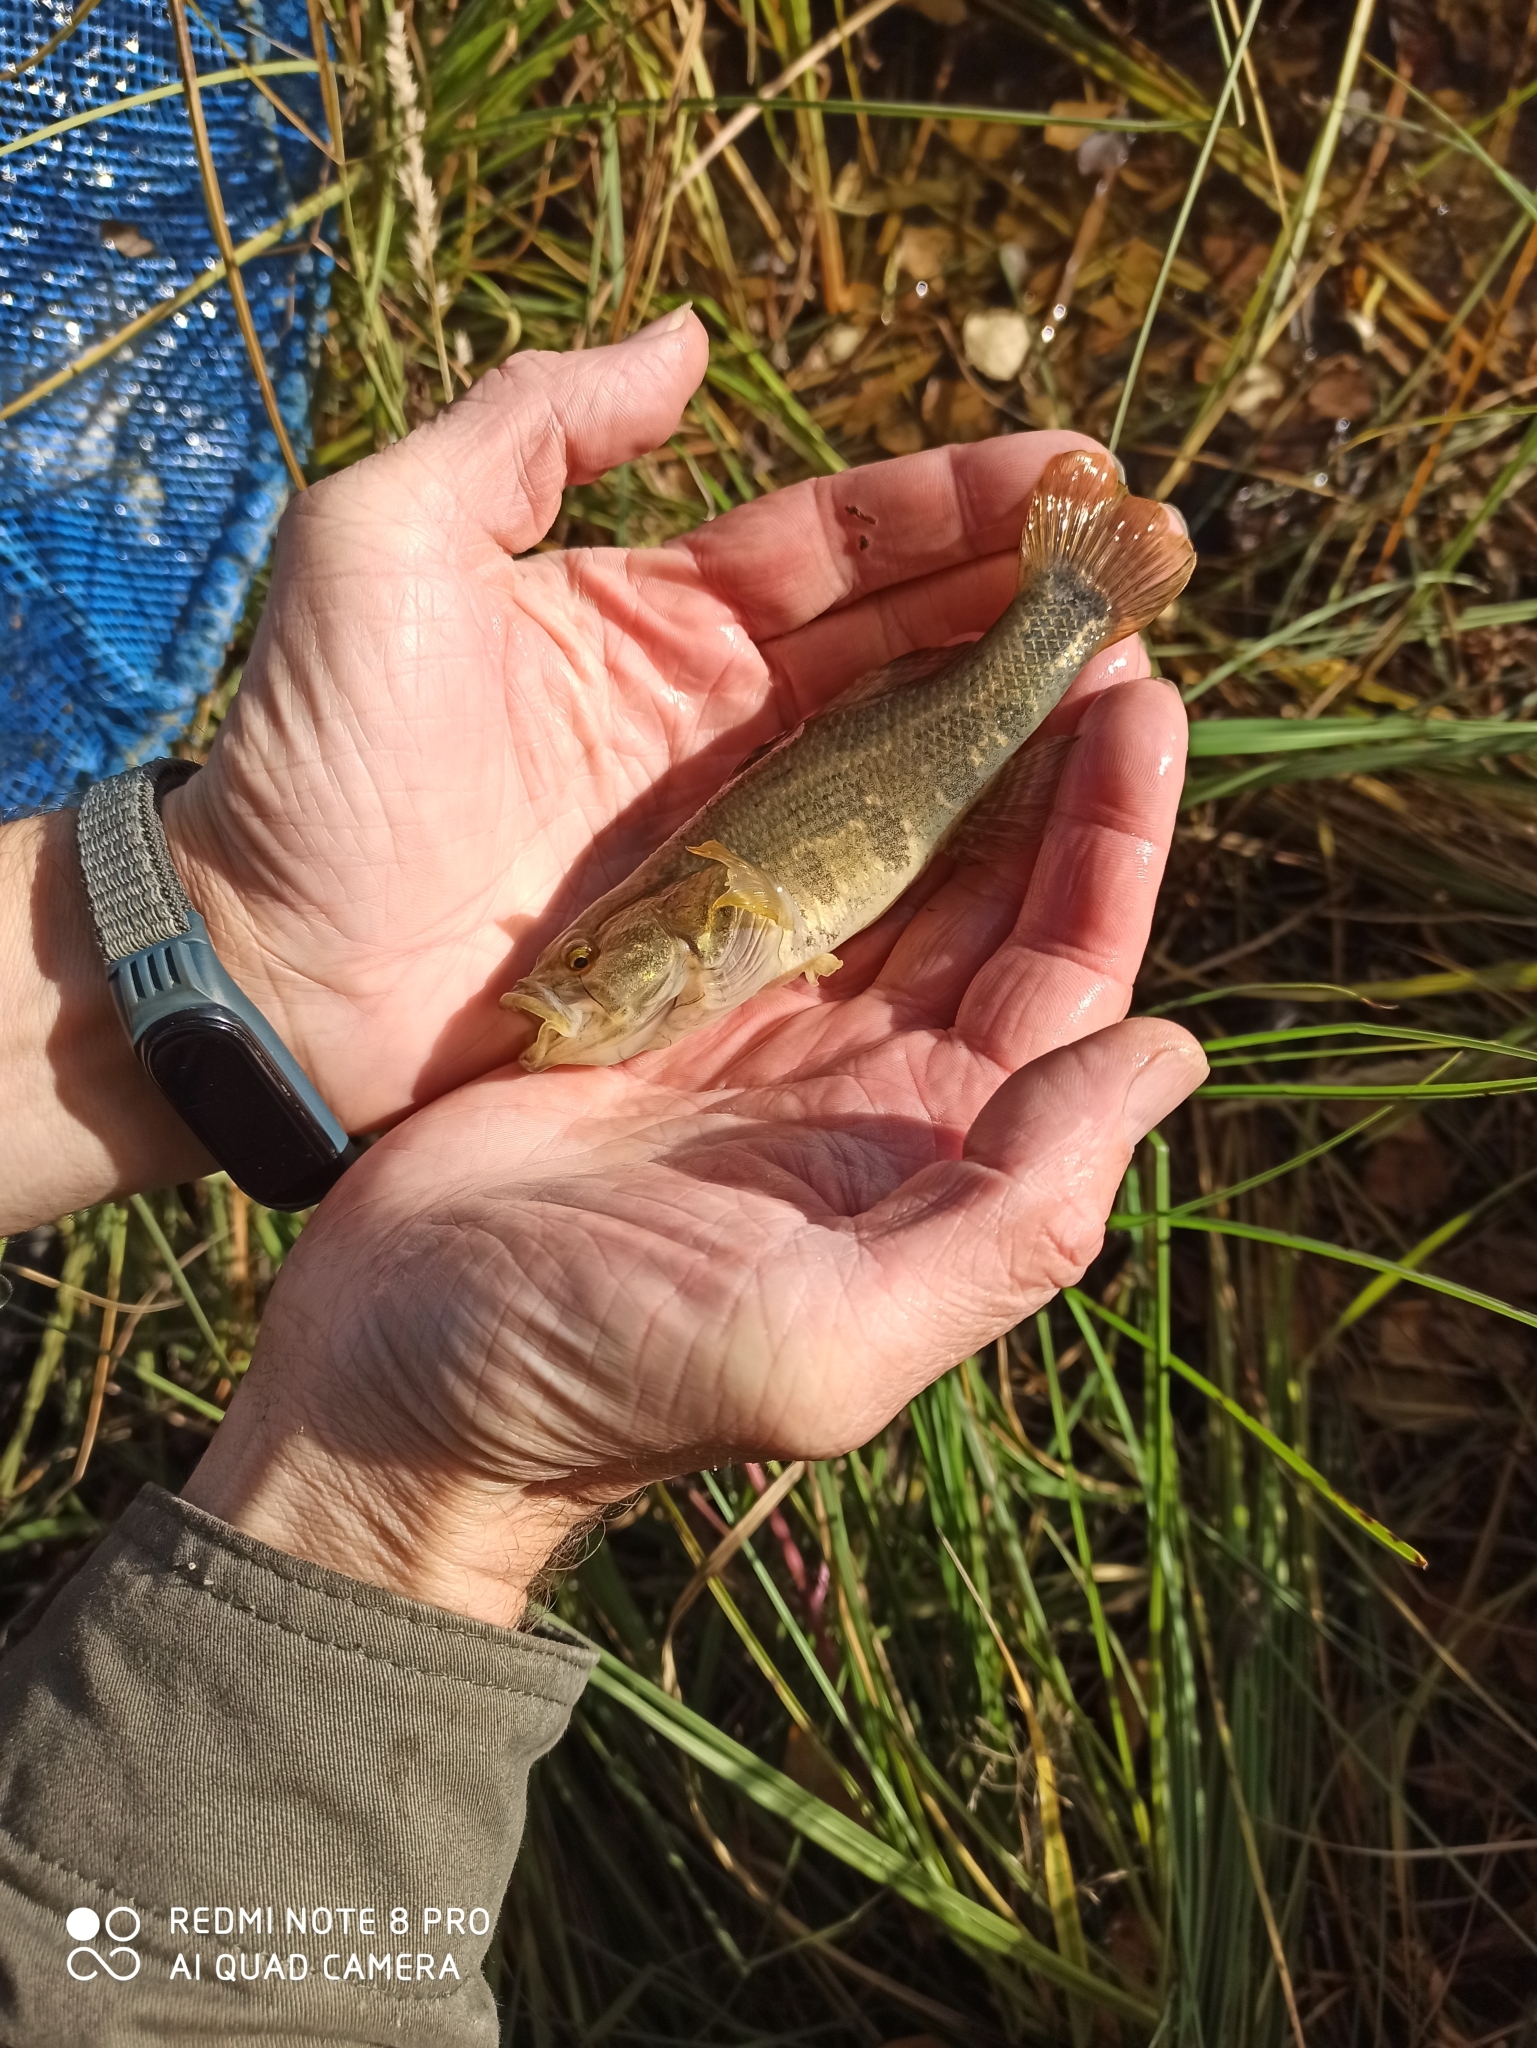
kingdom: Animalia
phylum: Chordata
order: Perciformes
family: Odontobutidae
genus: Perccottus
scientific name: Perccottus glenii
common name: Amur sleeper
